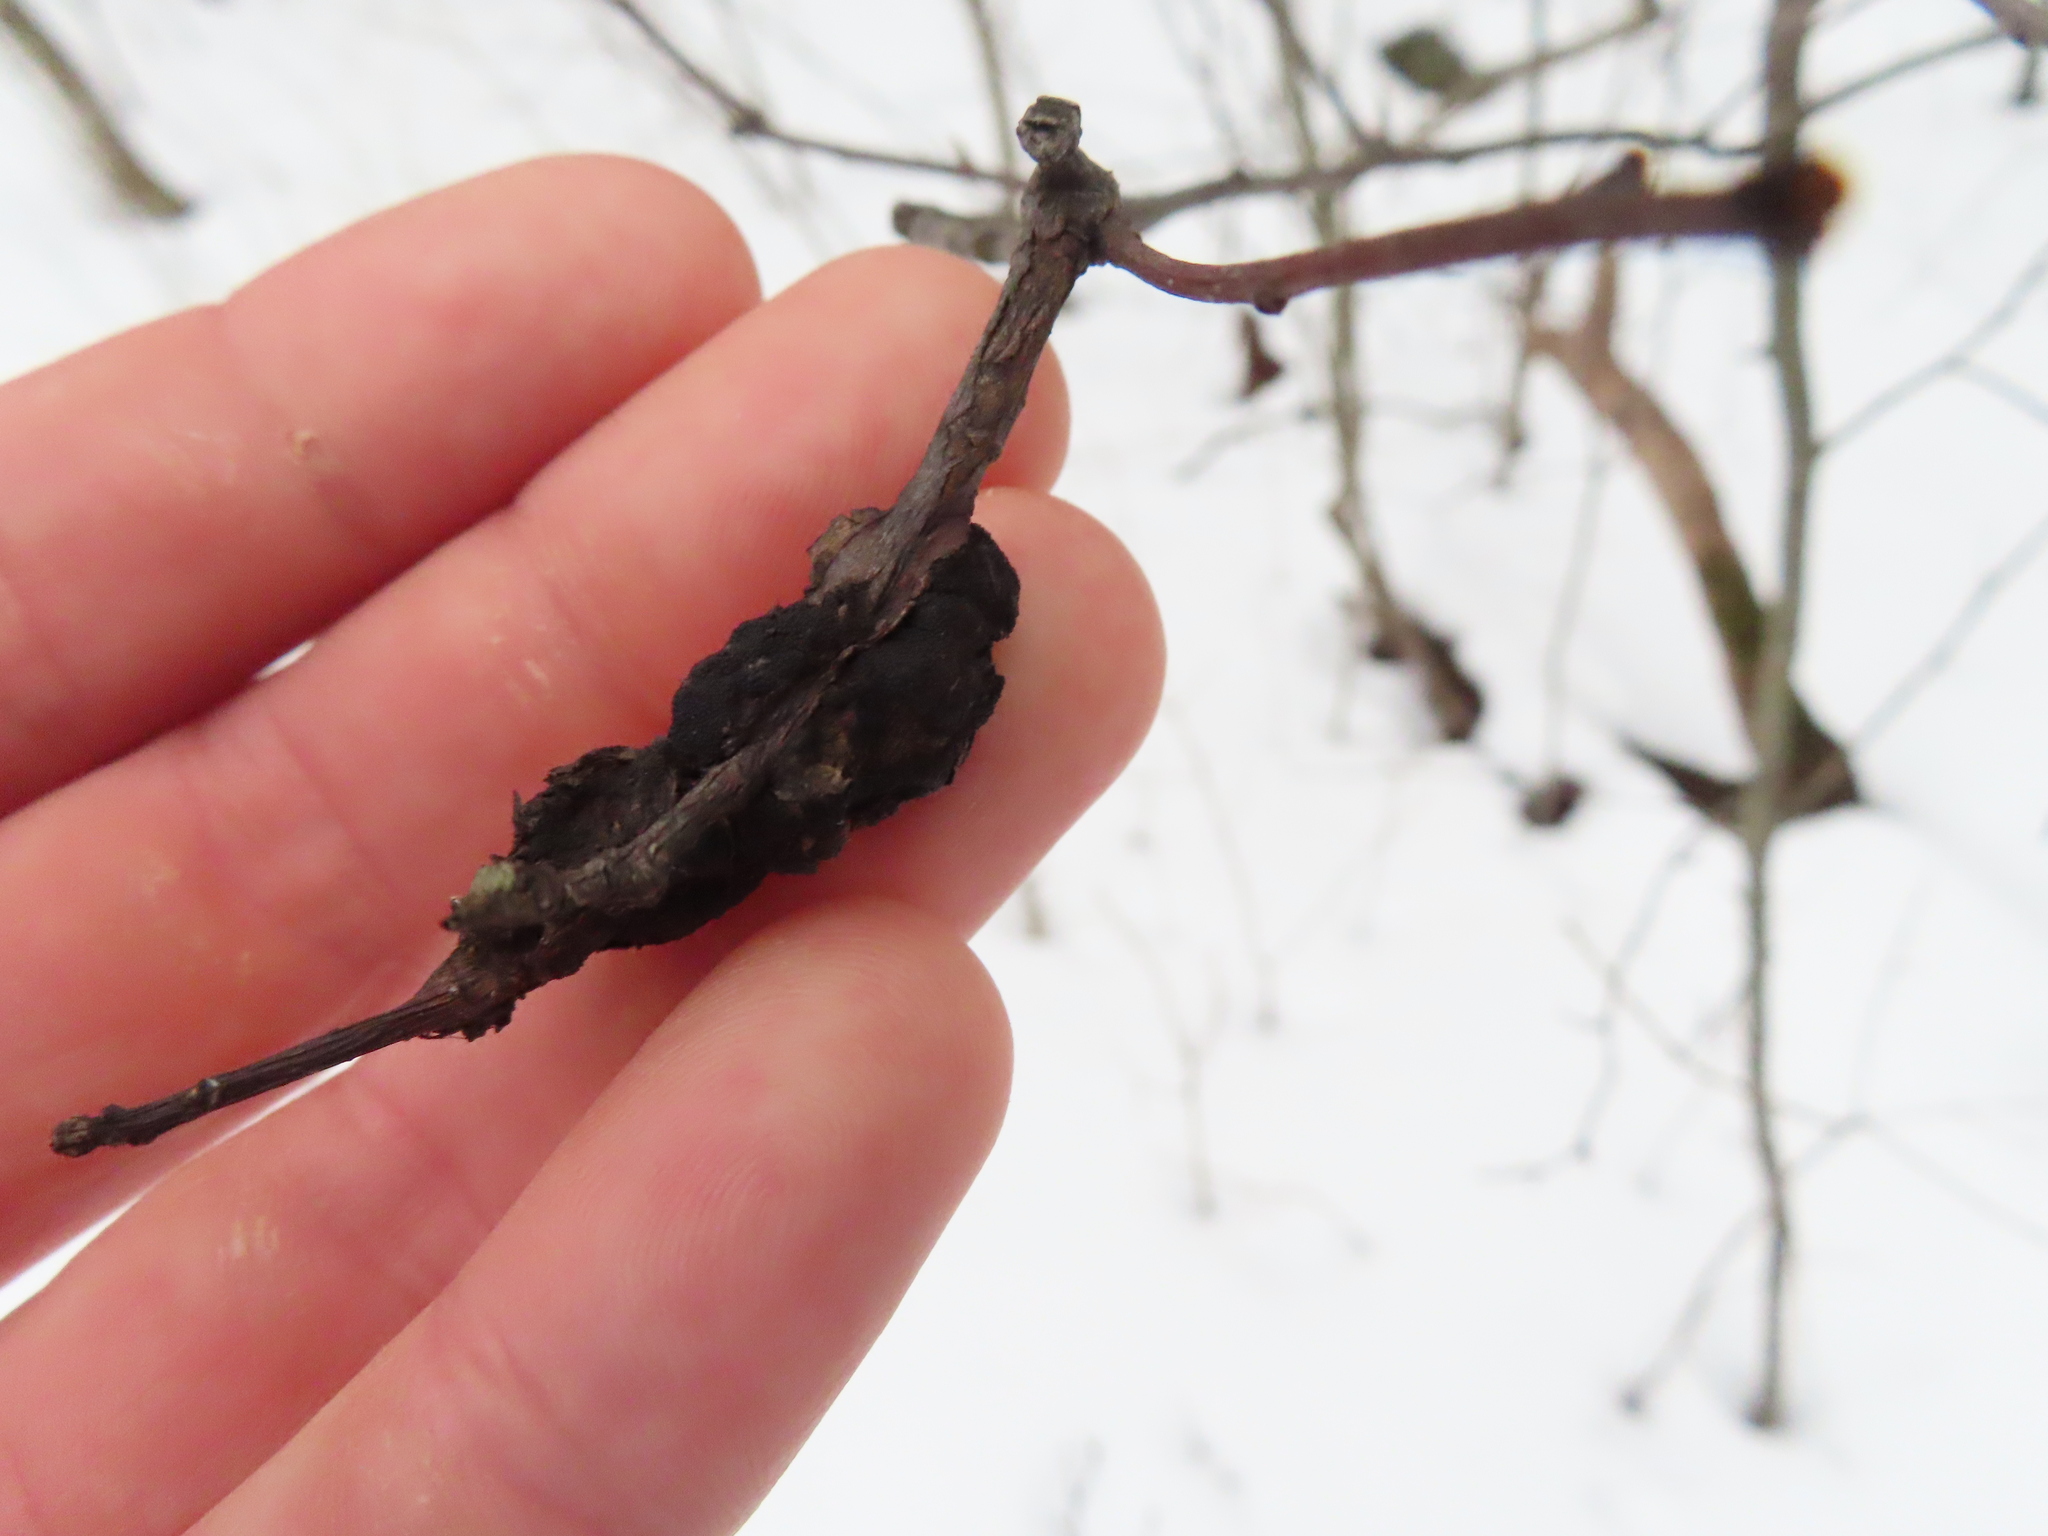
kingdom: Fungi
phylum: Ascomycota
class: Dothideomycetes
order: Venturiales
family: Venturiaceae
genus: Apiosporina
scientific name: Apiosporina morbosa
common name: Black knot
